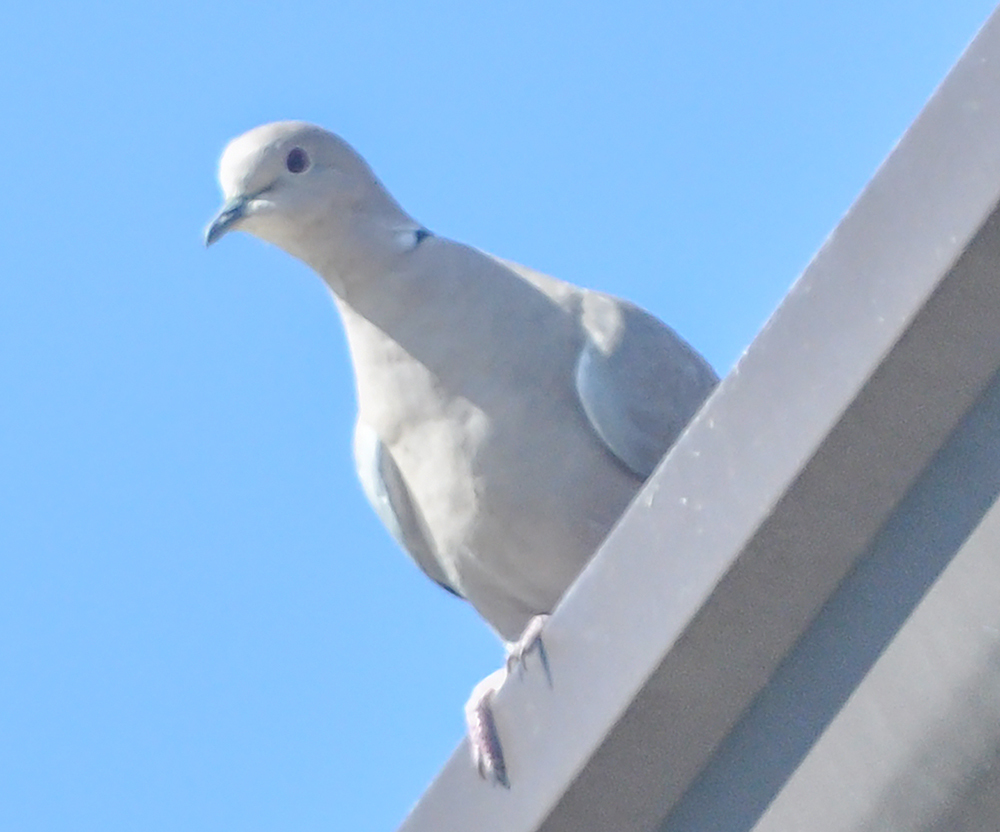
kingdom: Animalia
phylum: Chordata
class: Aves
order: Columbiformes
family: Columbidae
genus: Streptopelia
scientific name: Streptopelia decaocto
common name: Eurasian collared dove
